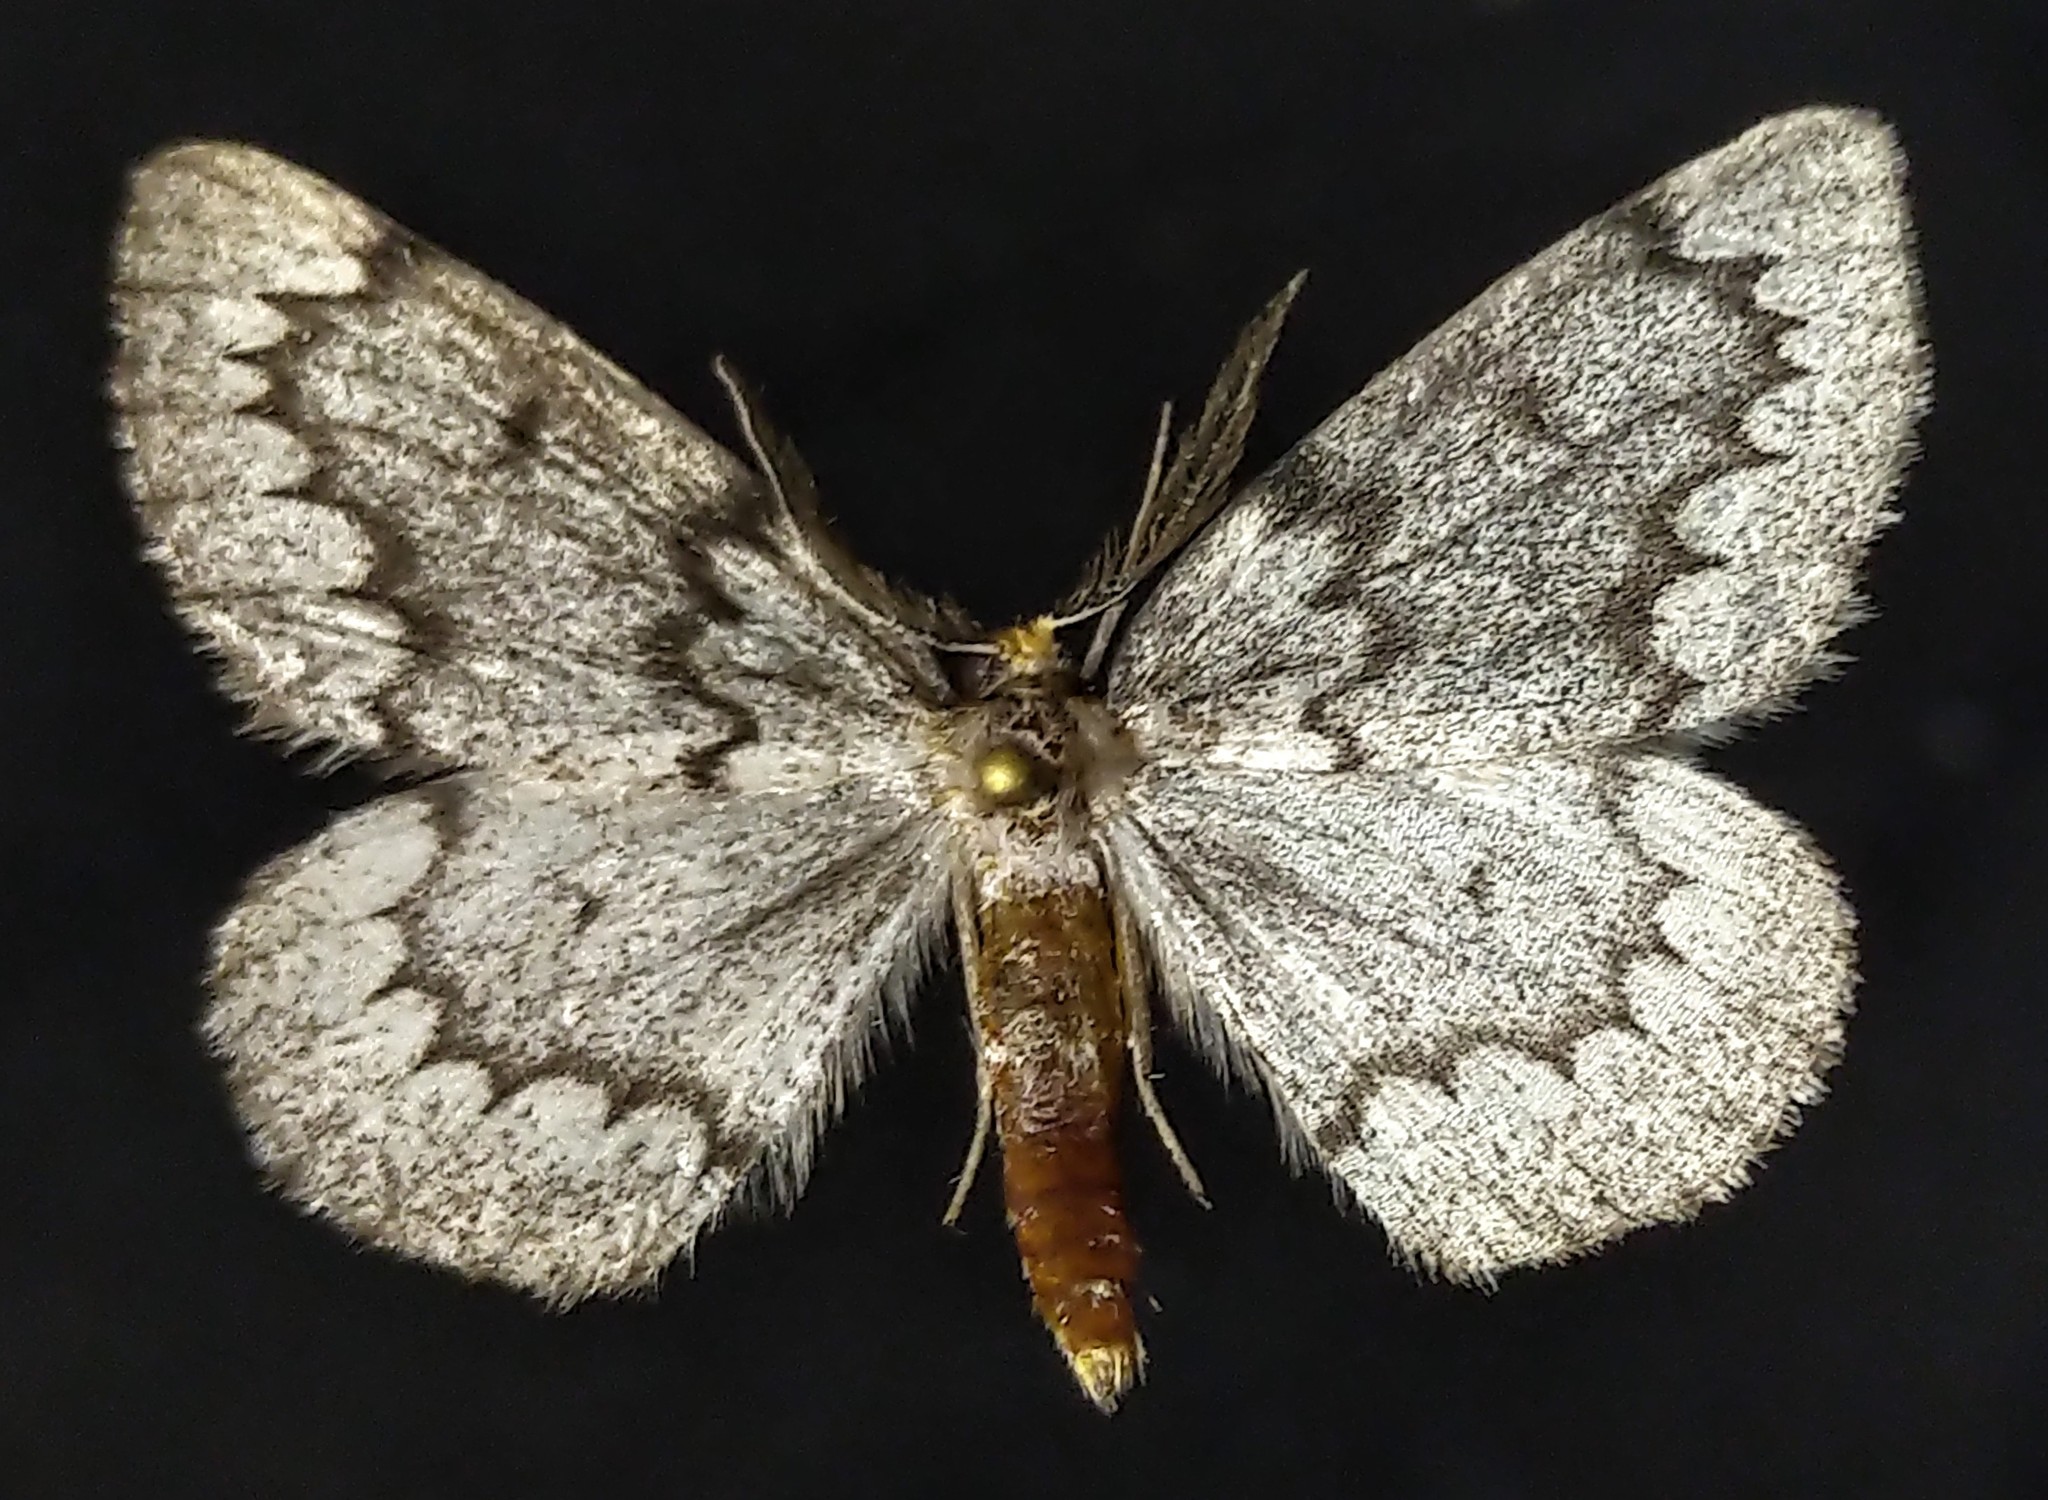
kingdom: Animalia
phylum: Arthropoda
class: Insecta
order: Lepidoptera
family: Geometridae
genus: Nepytia
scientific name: Nepytia canosaria
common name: False hemlock looper
